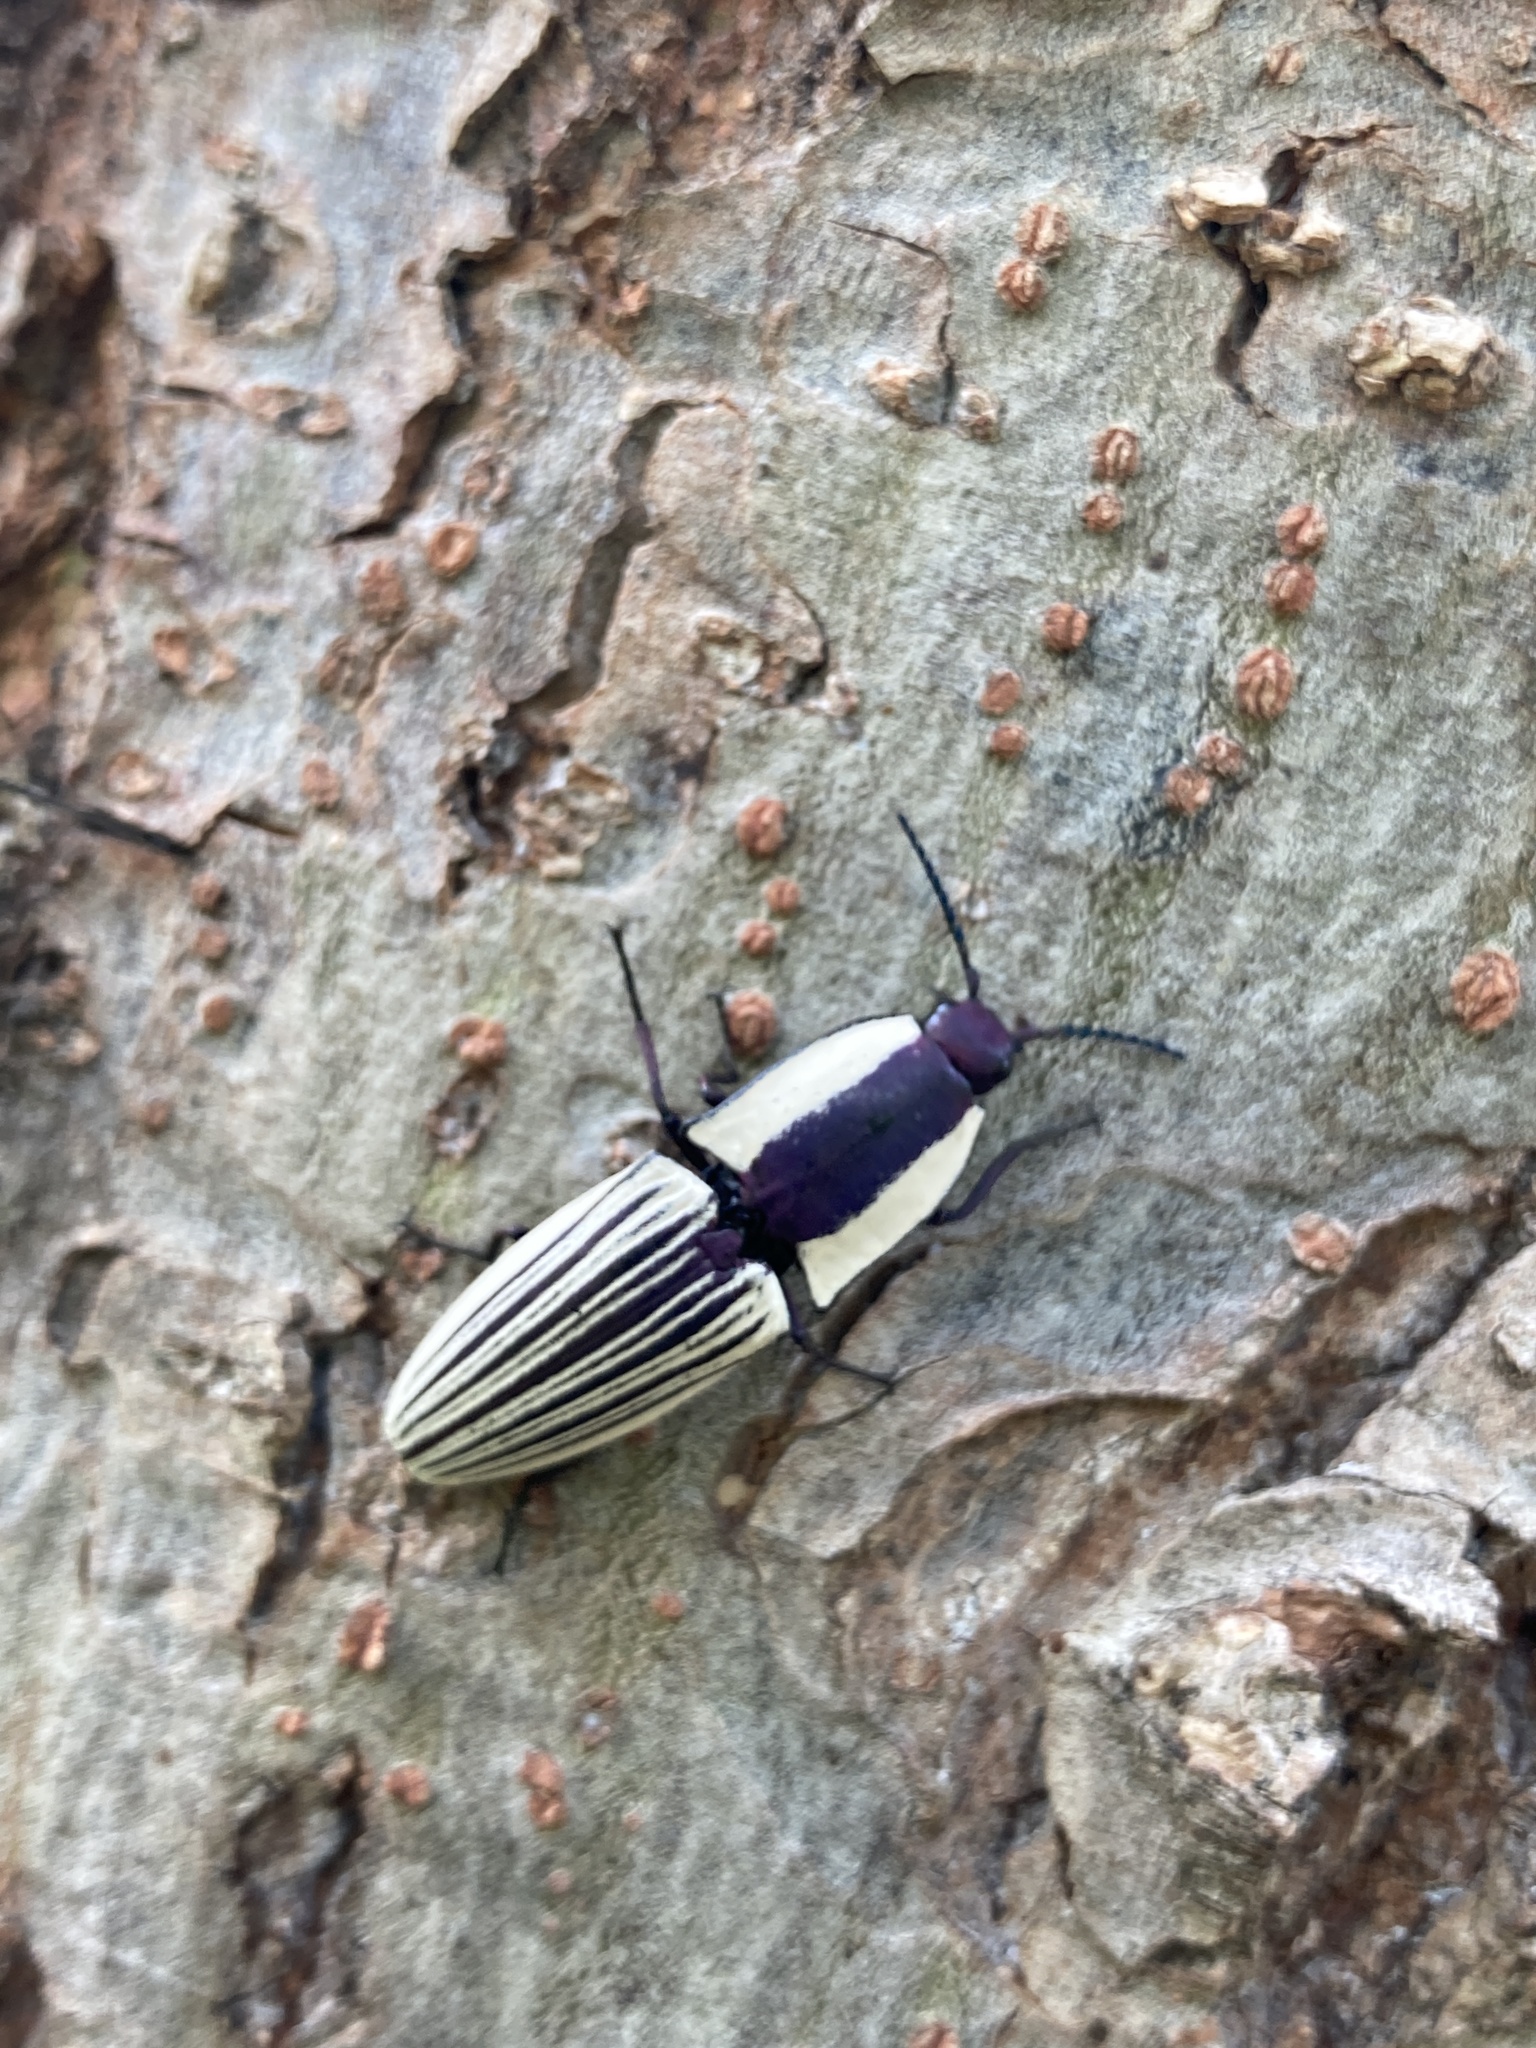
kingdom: Animalia
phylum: Arthropoda
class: Insecta
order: Coleoptera
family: Elateridae
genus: Chalcolepidius
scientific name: Chalcolepidius
